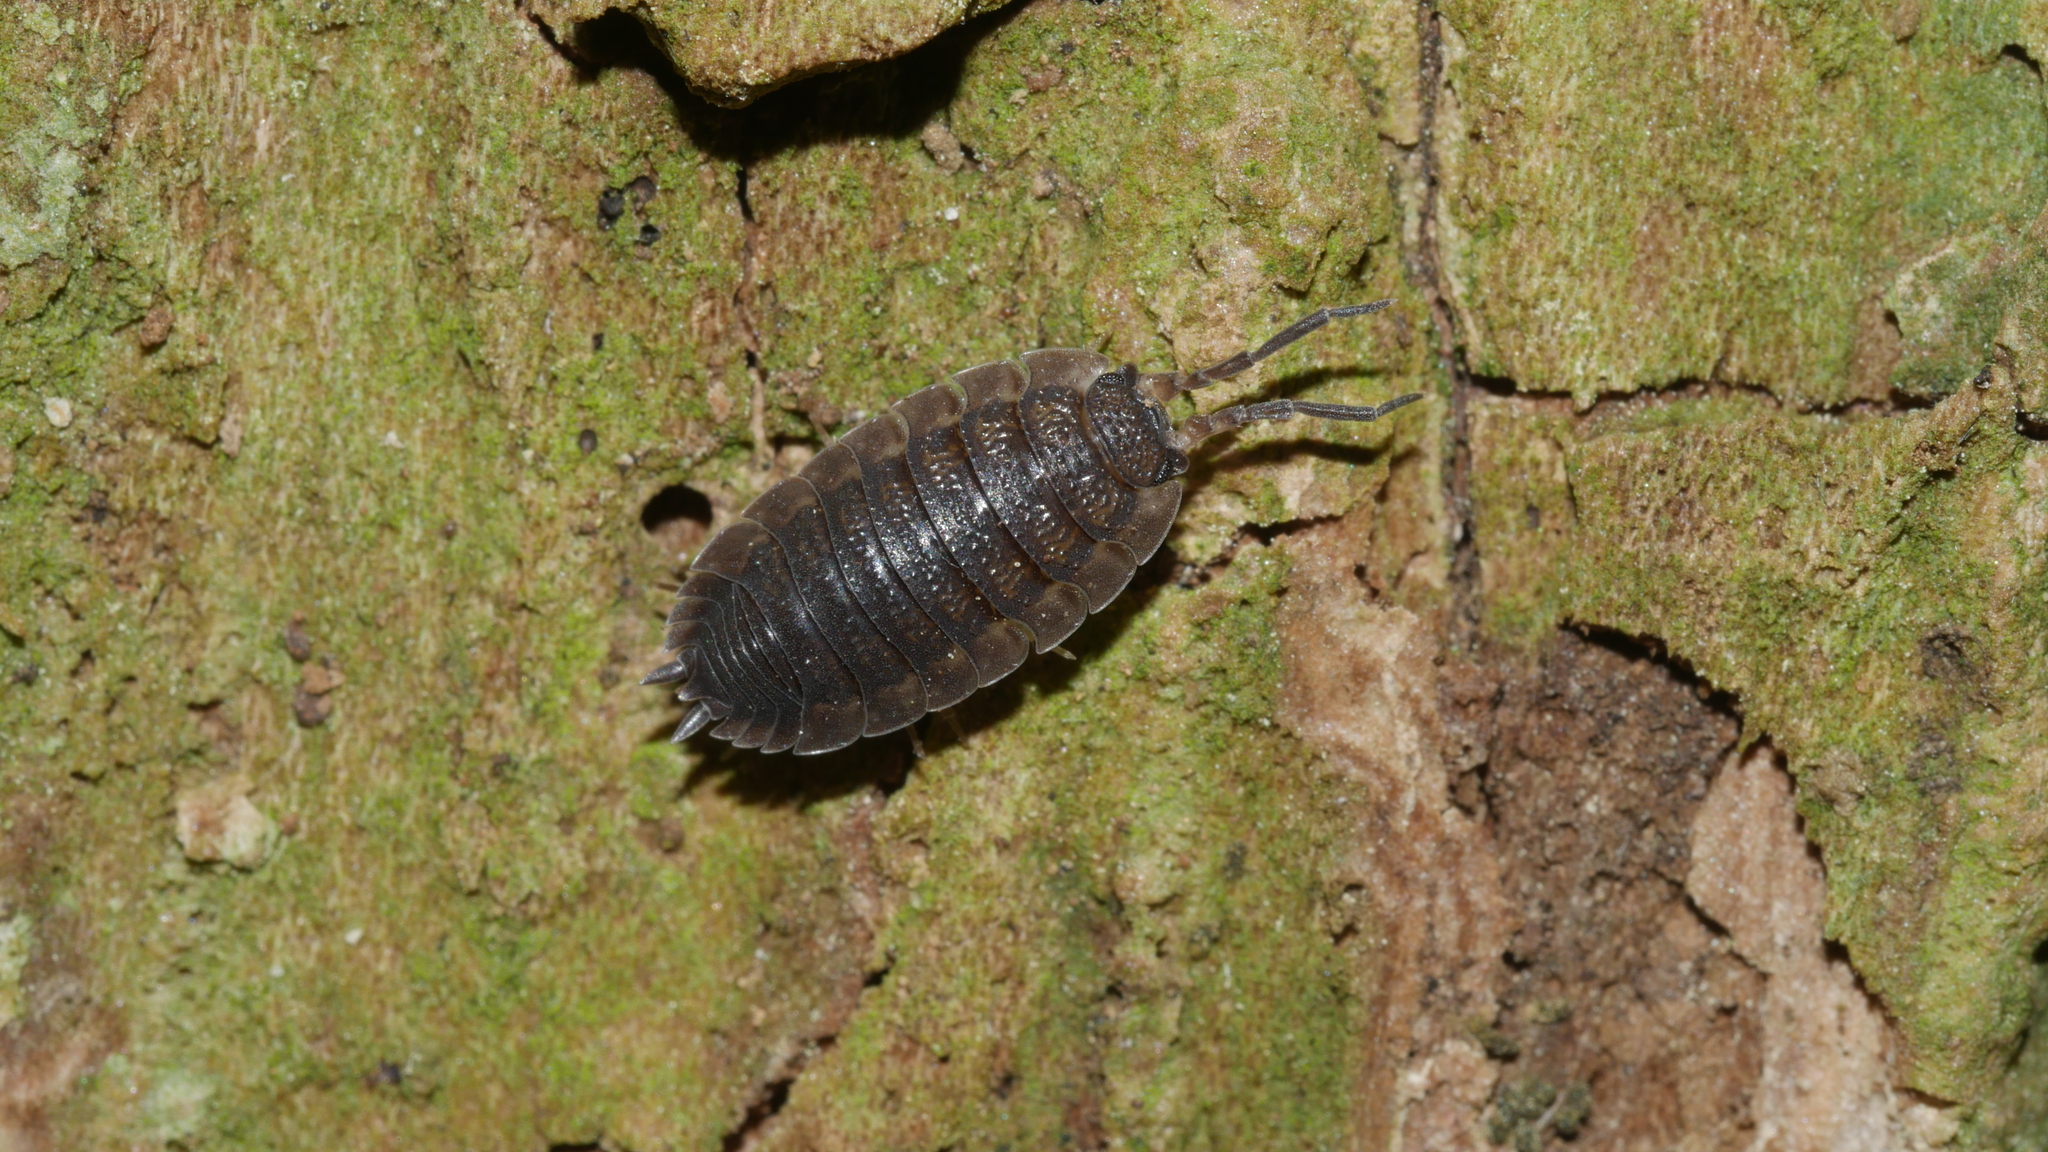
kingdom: Animalia
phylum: Arthropoda
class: Malacostraca
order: Isopoda
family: Porcellionidae
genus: Porcellio
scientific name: Porcellio scaber
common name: Common rough woodlouse
